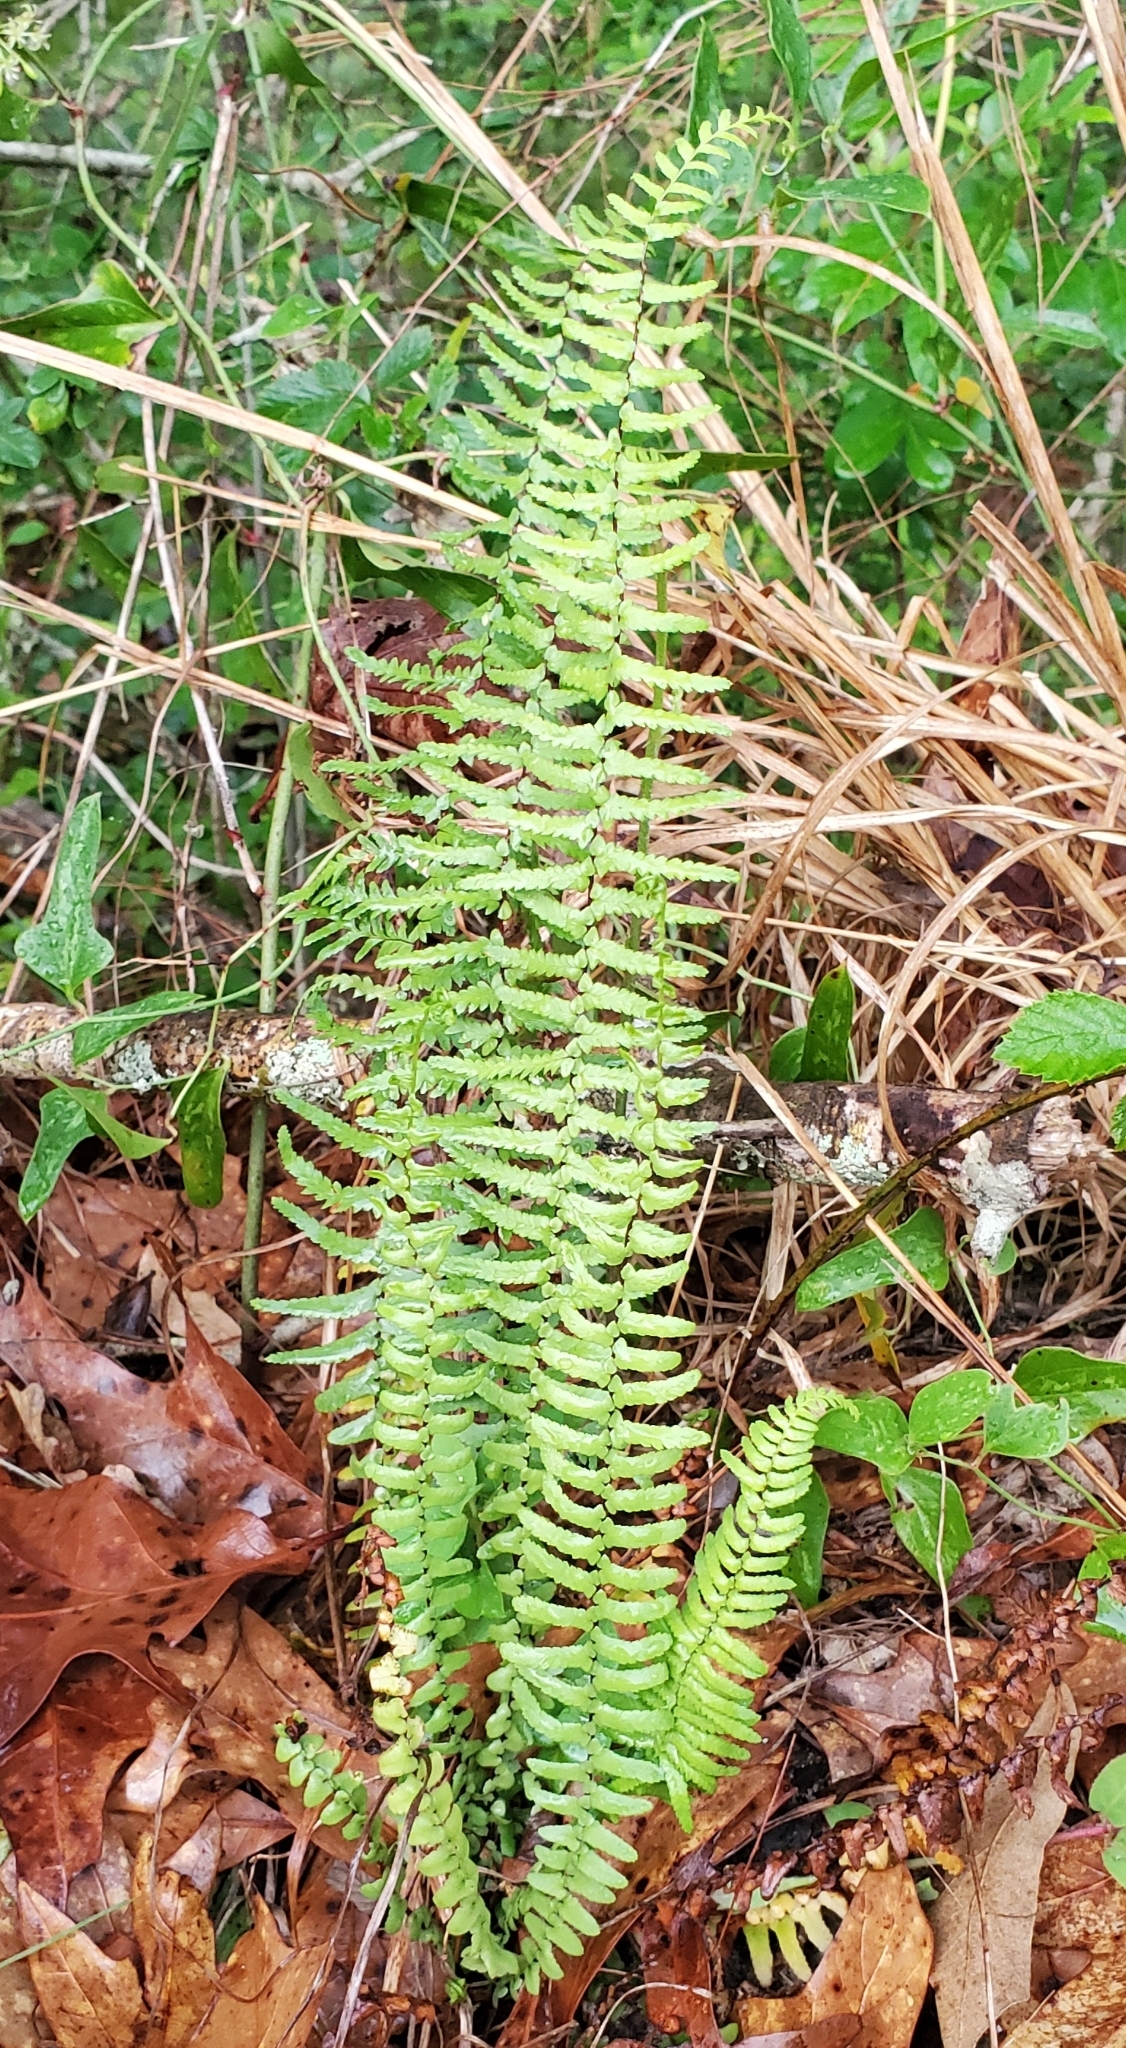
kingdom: Plantae
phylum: Tracheophyta
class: Polypodiopsida
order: Polypodiales
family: Aspleniaceae
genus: Asplenium
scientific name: Asplenium platyneuron
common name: Ebony spleenwort
